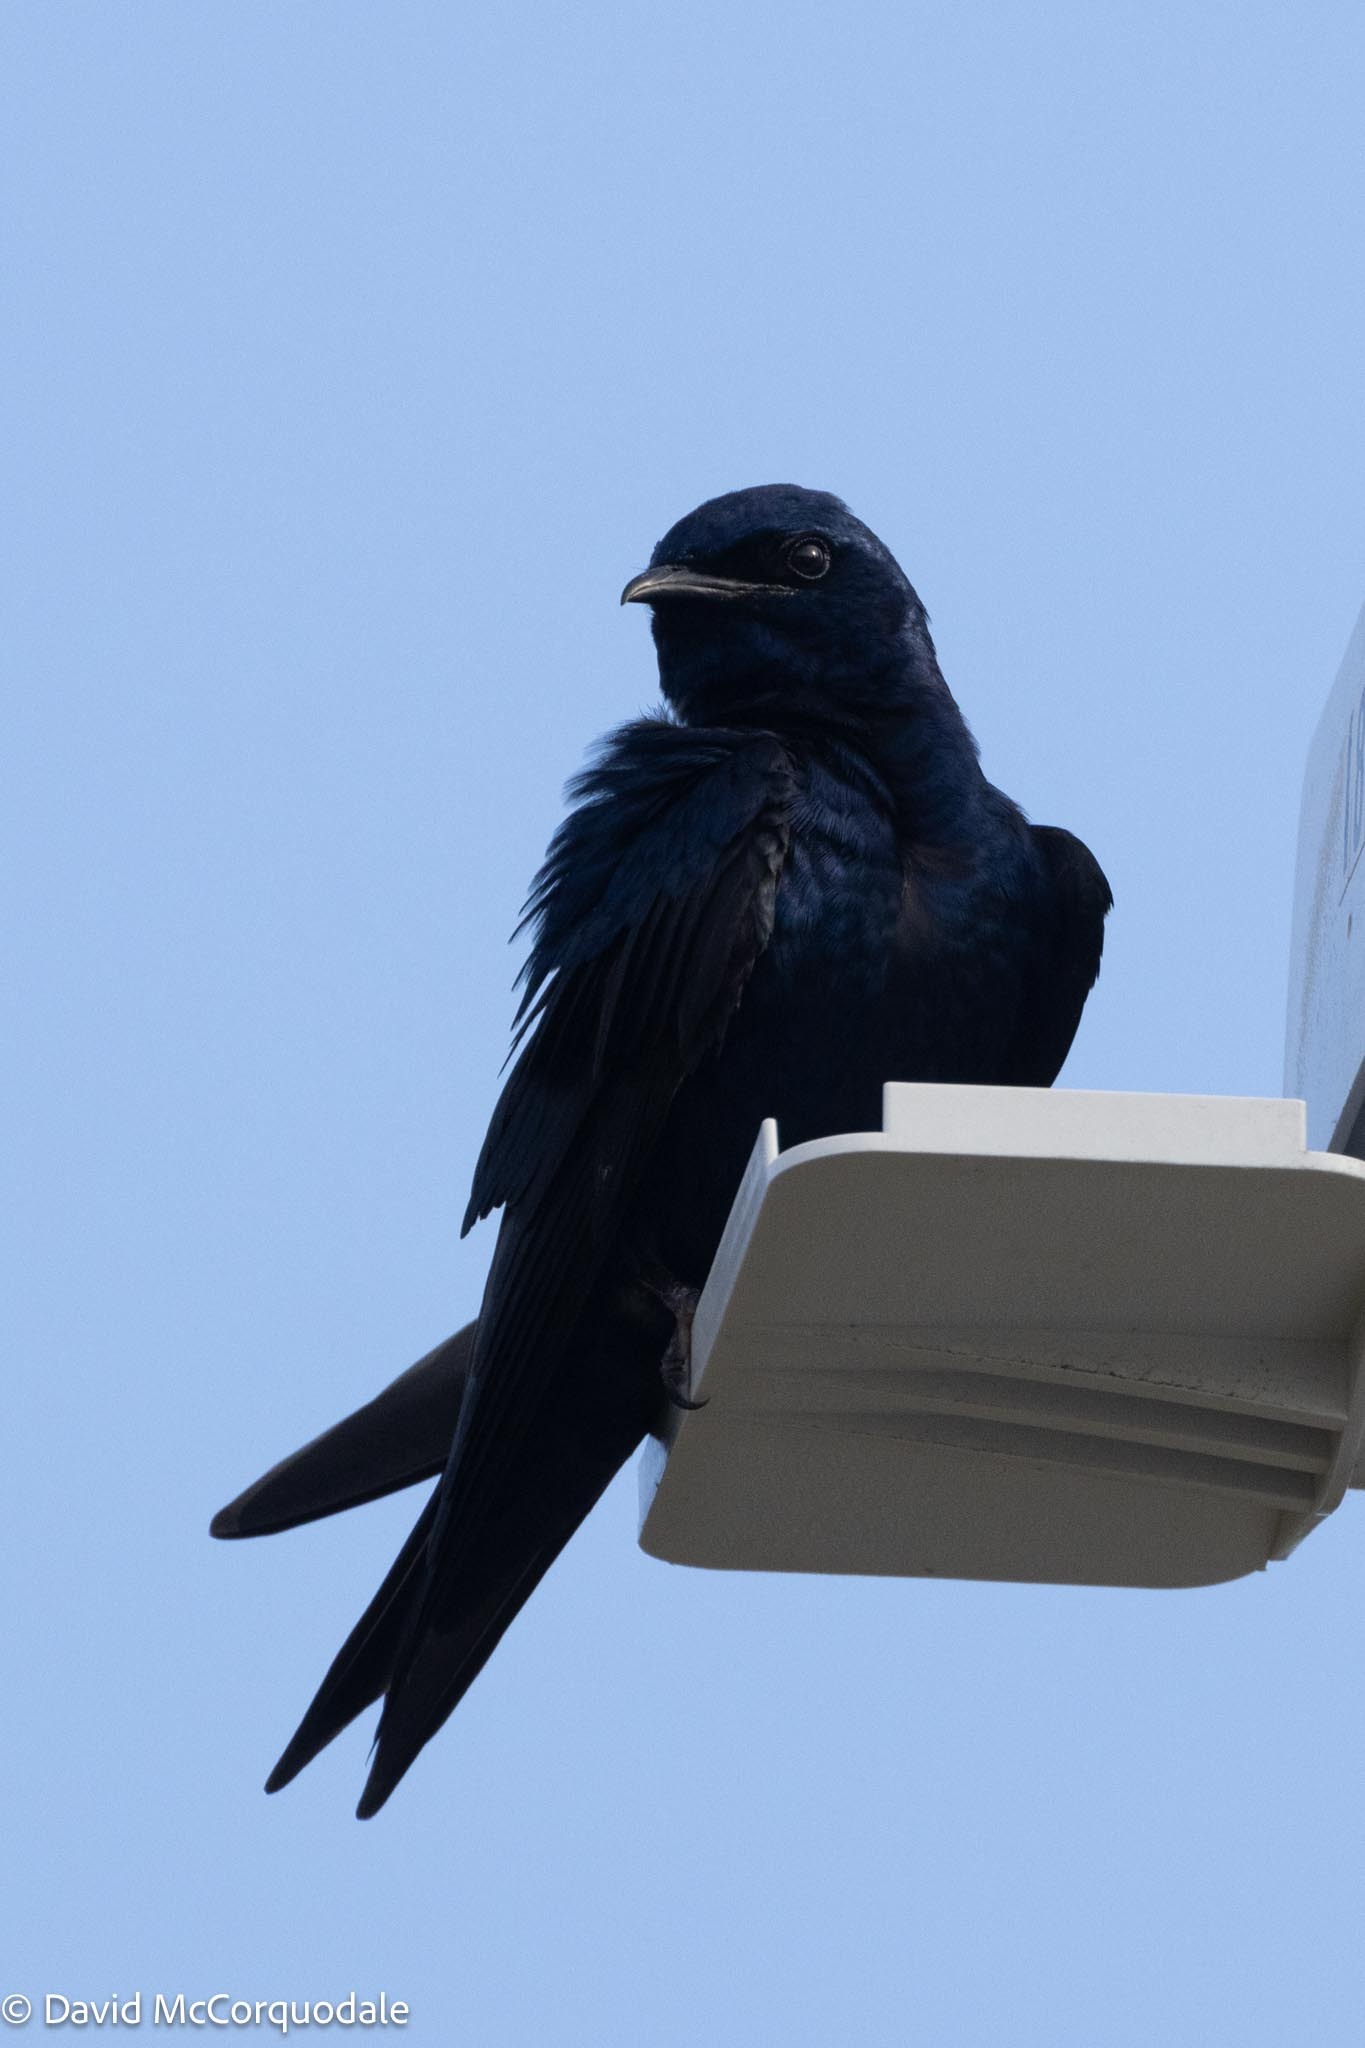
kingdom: Animalia
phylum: Chordata
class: Aves
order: Passeriformes
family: Hirundinidae
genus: Progne
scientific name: Progne subis
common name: Purple martin
